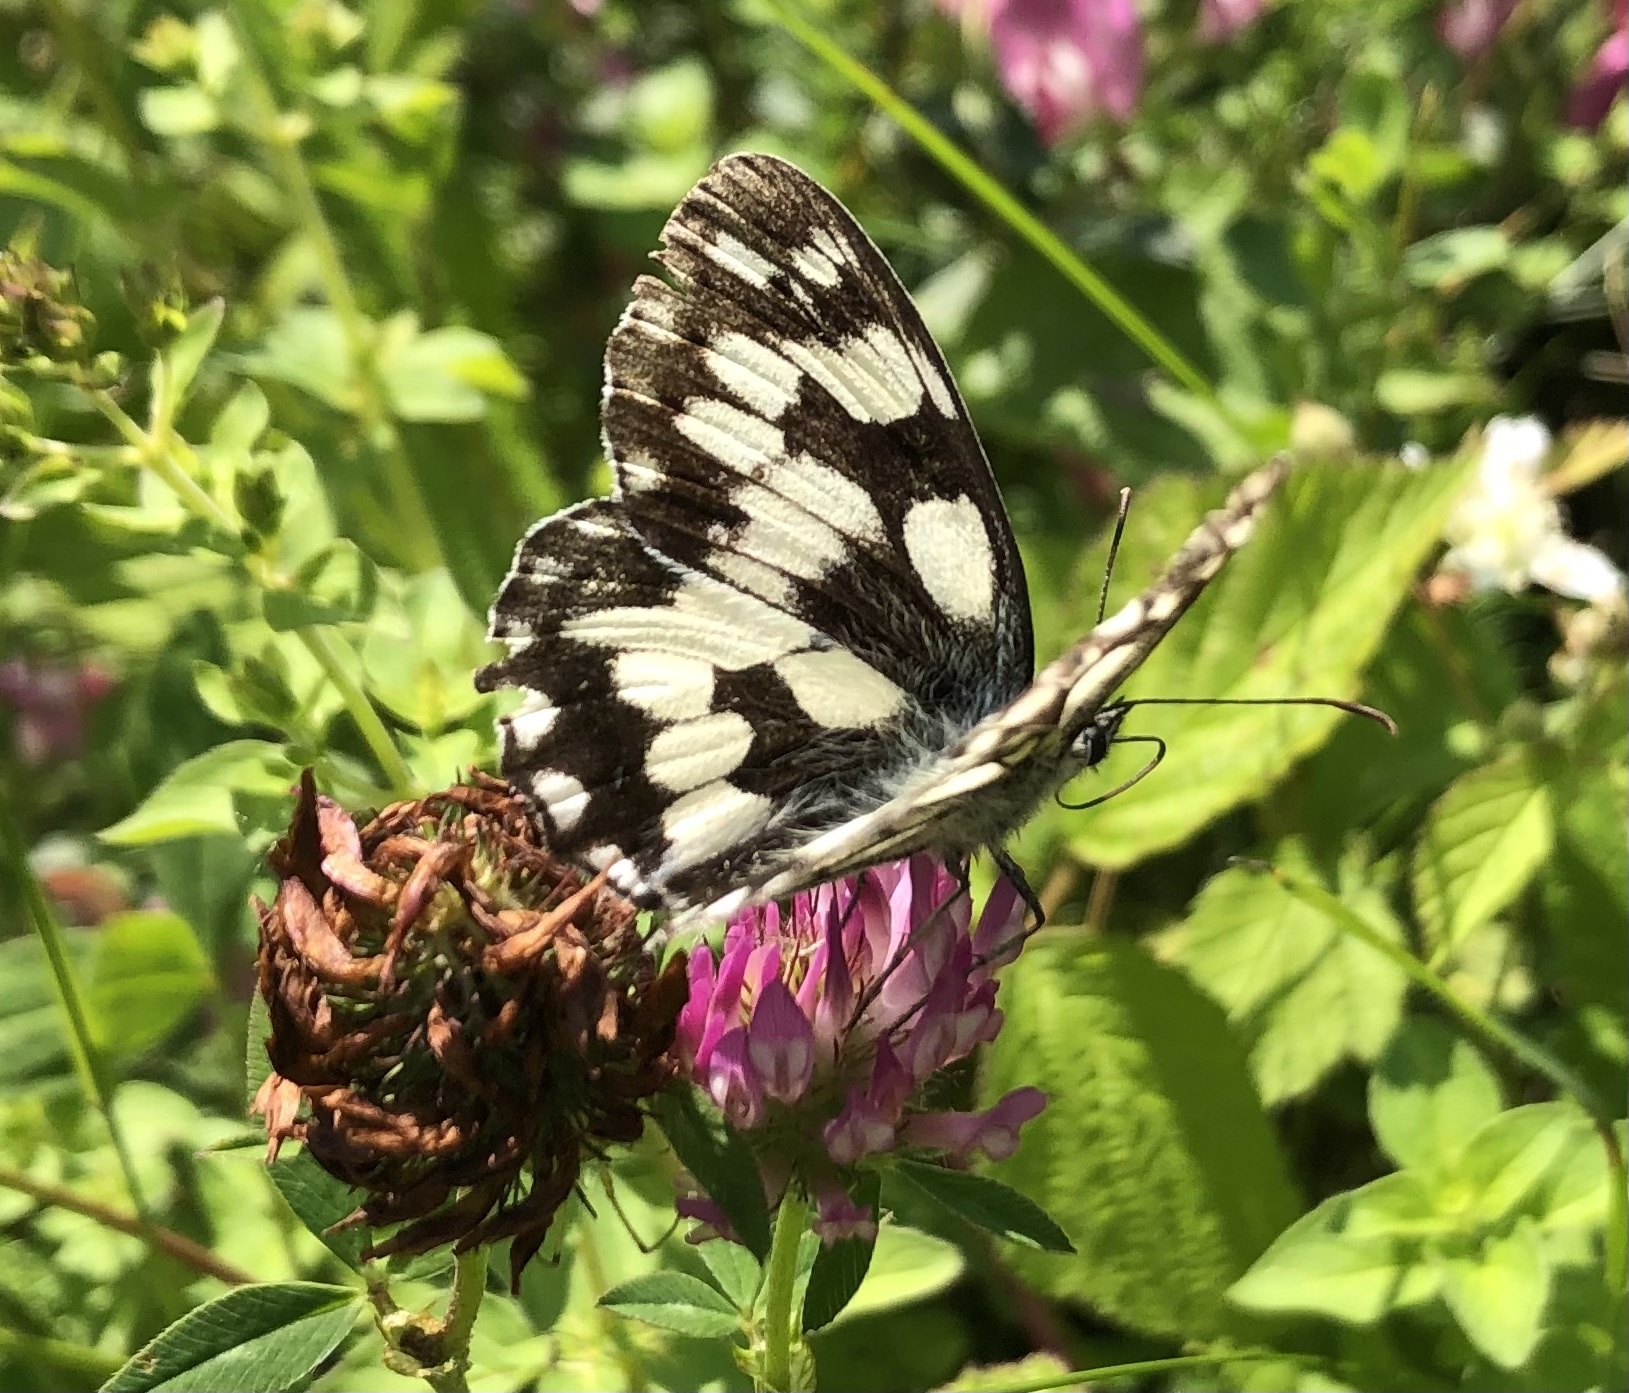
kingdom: Animalia
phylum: Arthropoda
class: Insecta
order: Lepidoptera
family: Nymphalidae
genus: Melanargia
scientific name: Melanargia galathea
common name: Marbled white
